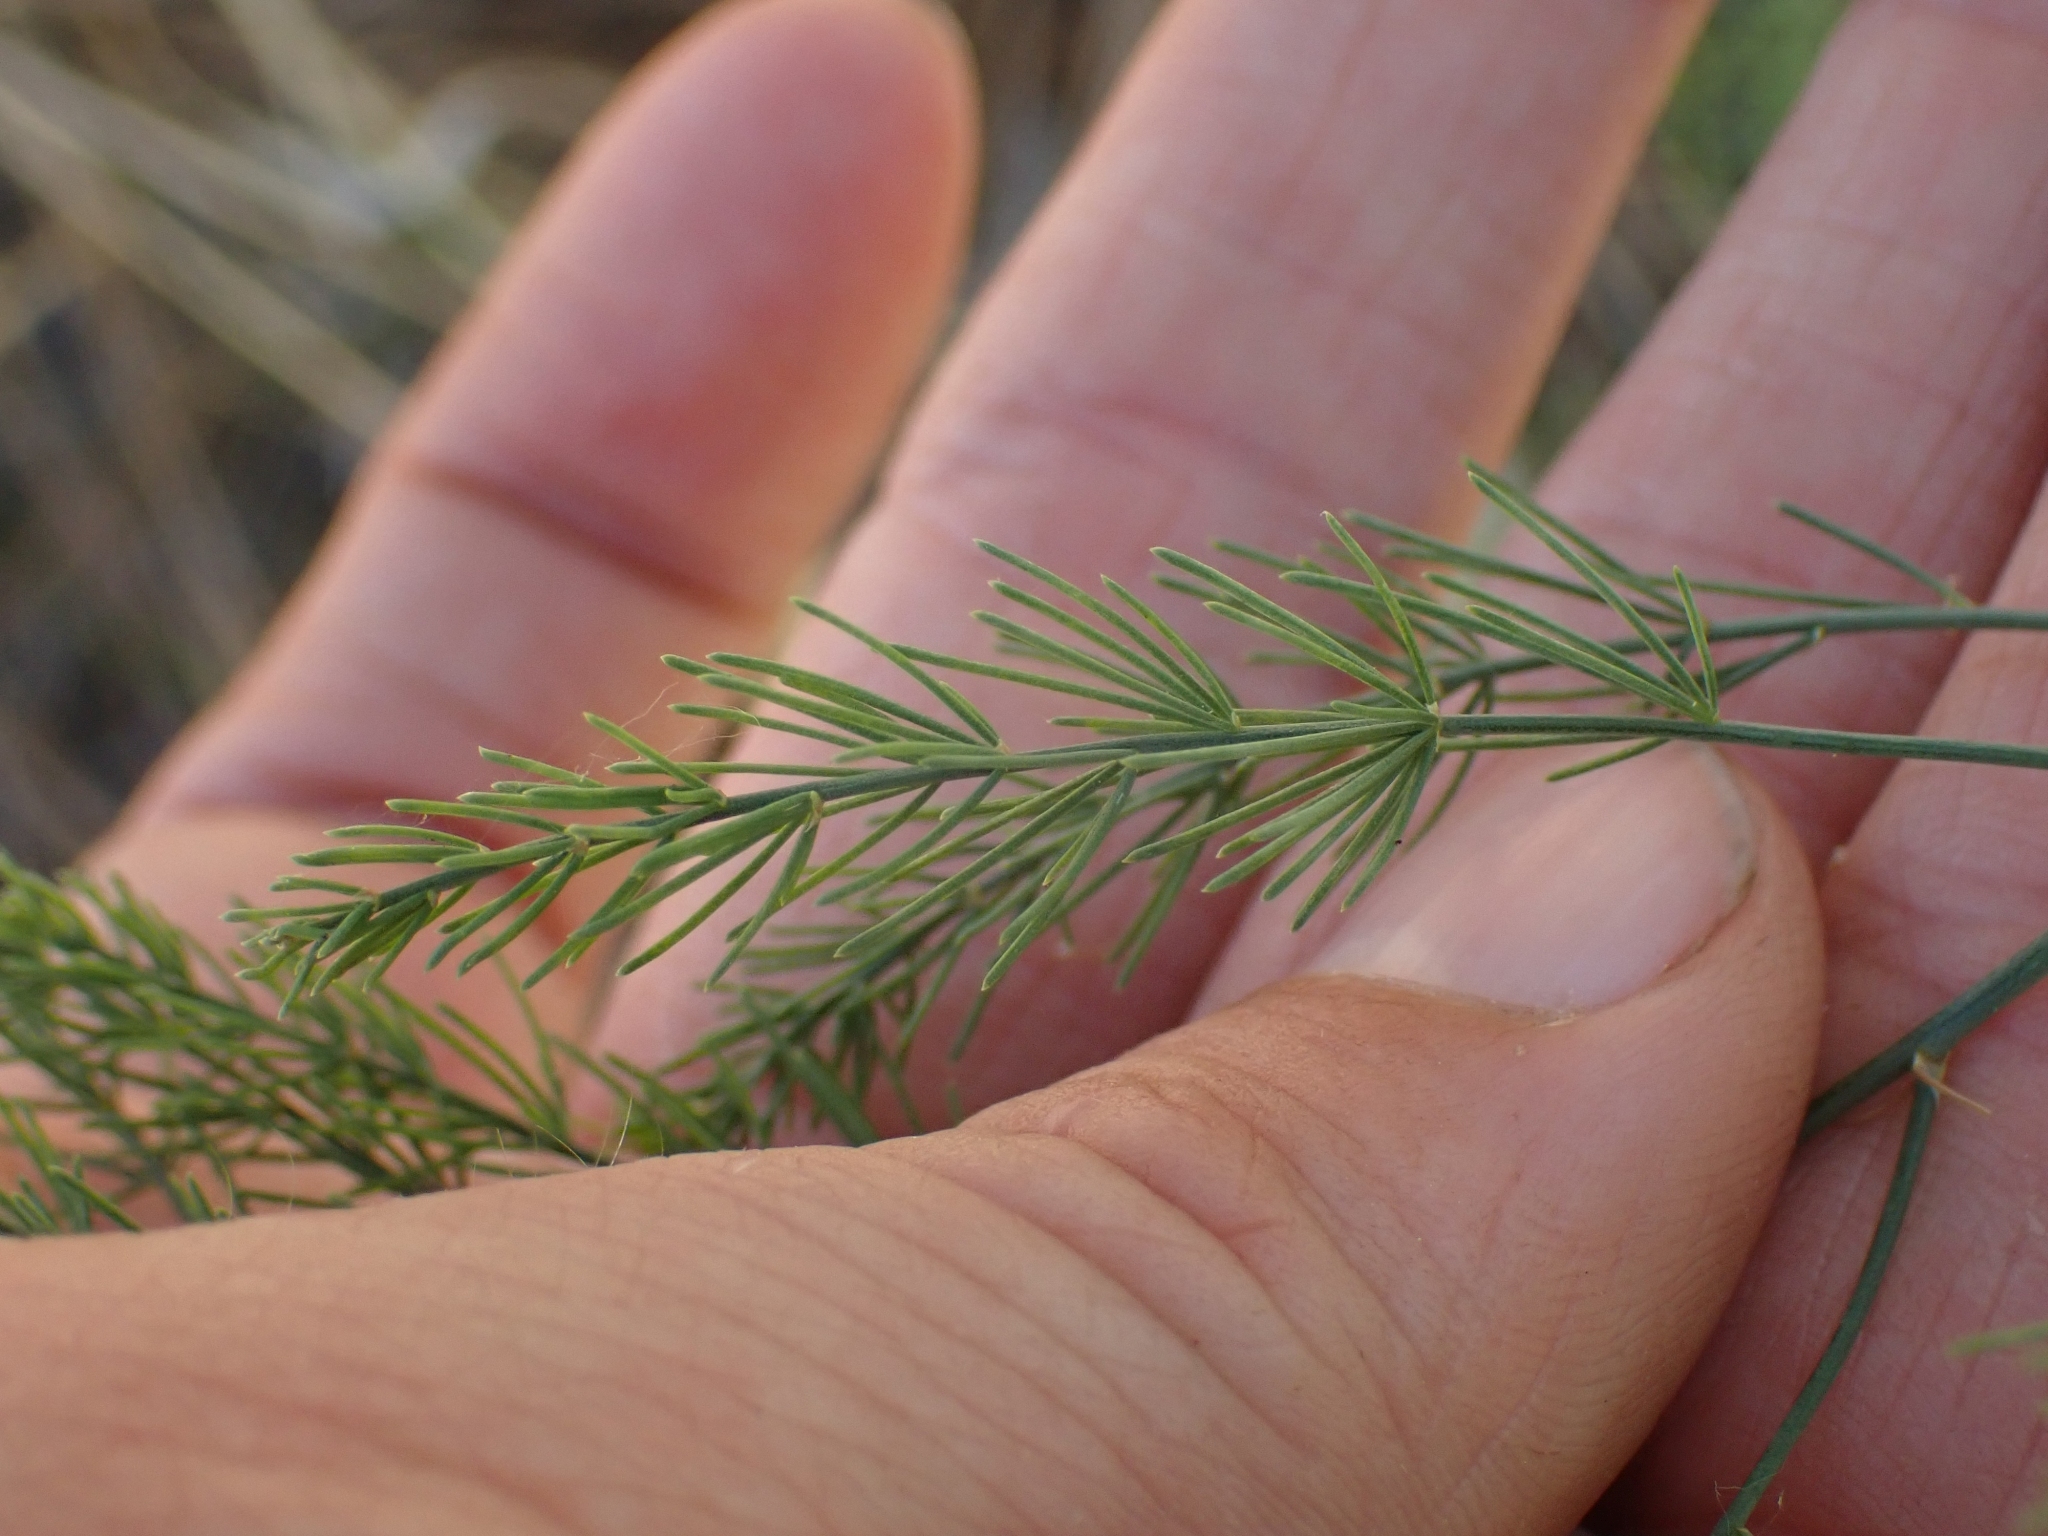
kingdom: Plantae
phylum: Tracheophyta
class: Liliopsida
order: Asparagales
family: Asparagaceae
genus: Asparagus
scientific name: Asparagus officinalis
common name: Garden asparagus
